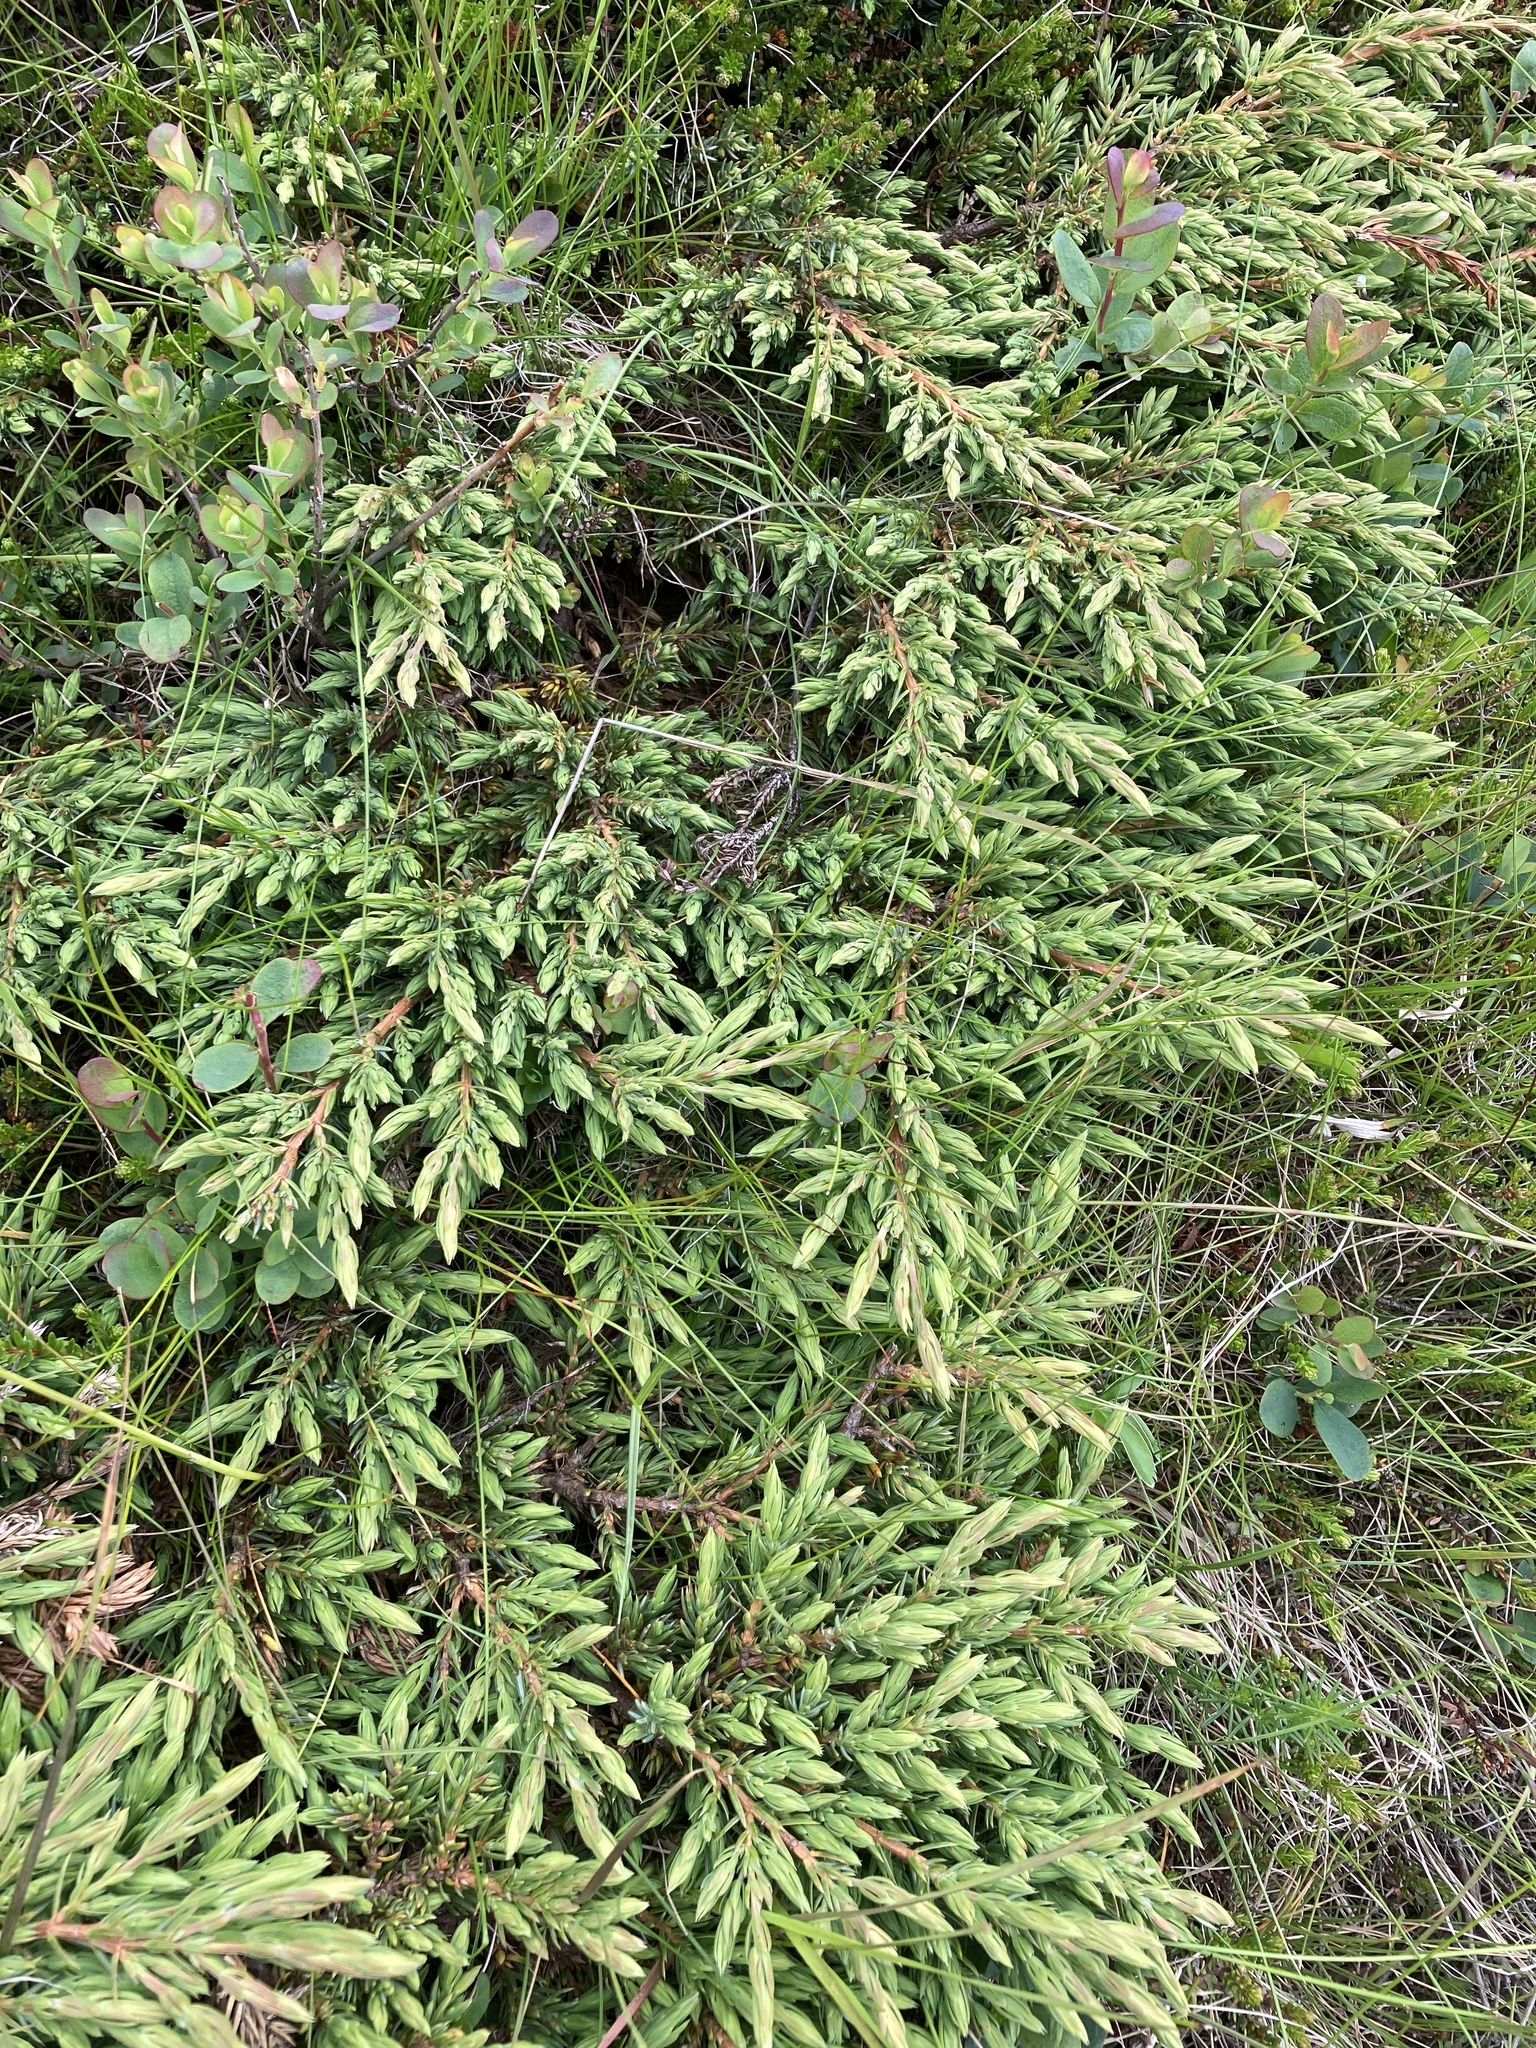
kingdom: Plantae
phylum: Tracheophyta
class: Pinopsida
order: Pinales
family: Cupressaceae
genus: Juniperus
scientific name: Juniperus communis
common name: Common juniper
